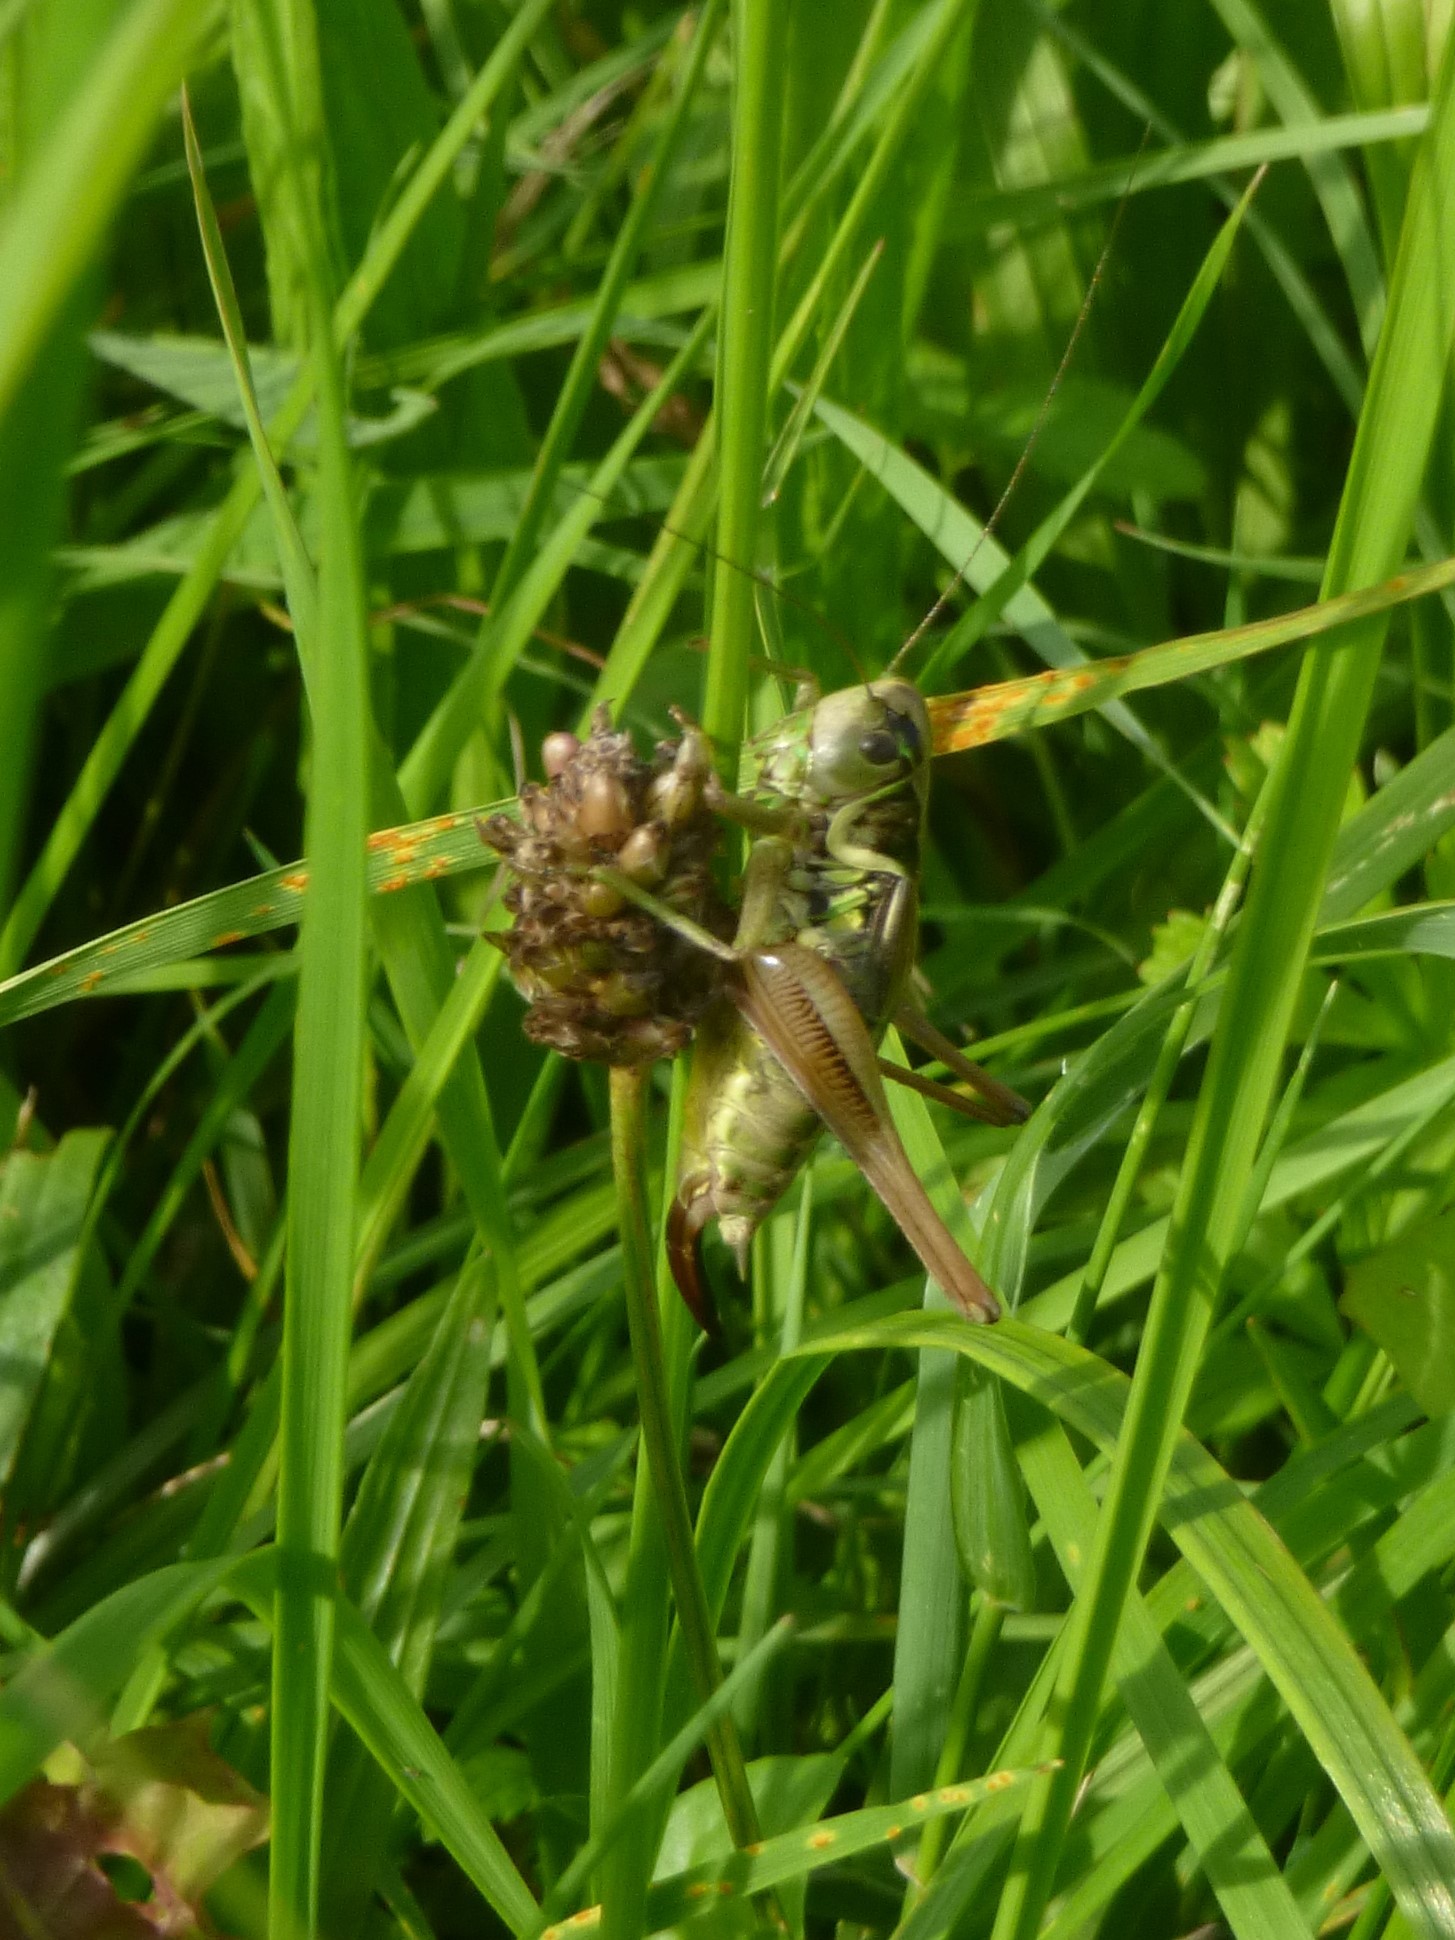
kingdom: Animalia
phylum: Arthropoda
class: Insecta
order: Orthoptera
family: Tettigoniidae
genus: Roeseliana
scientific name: Roeseliana roeselii
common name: Roesel's bush cricket
